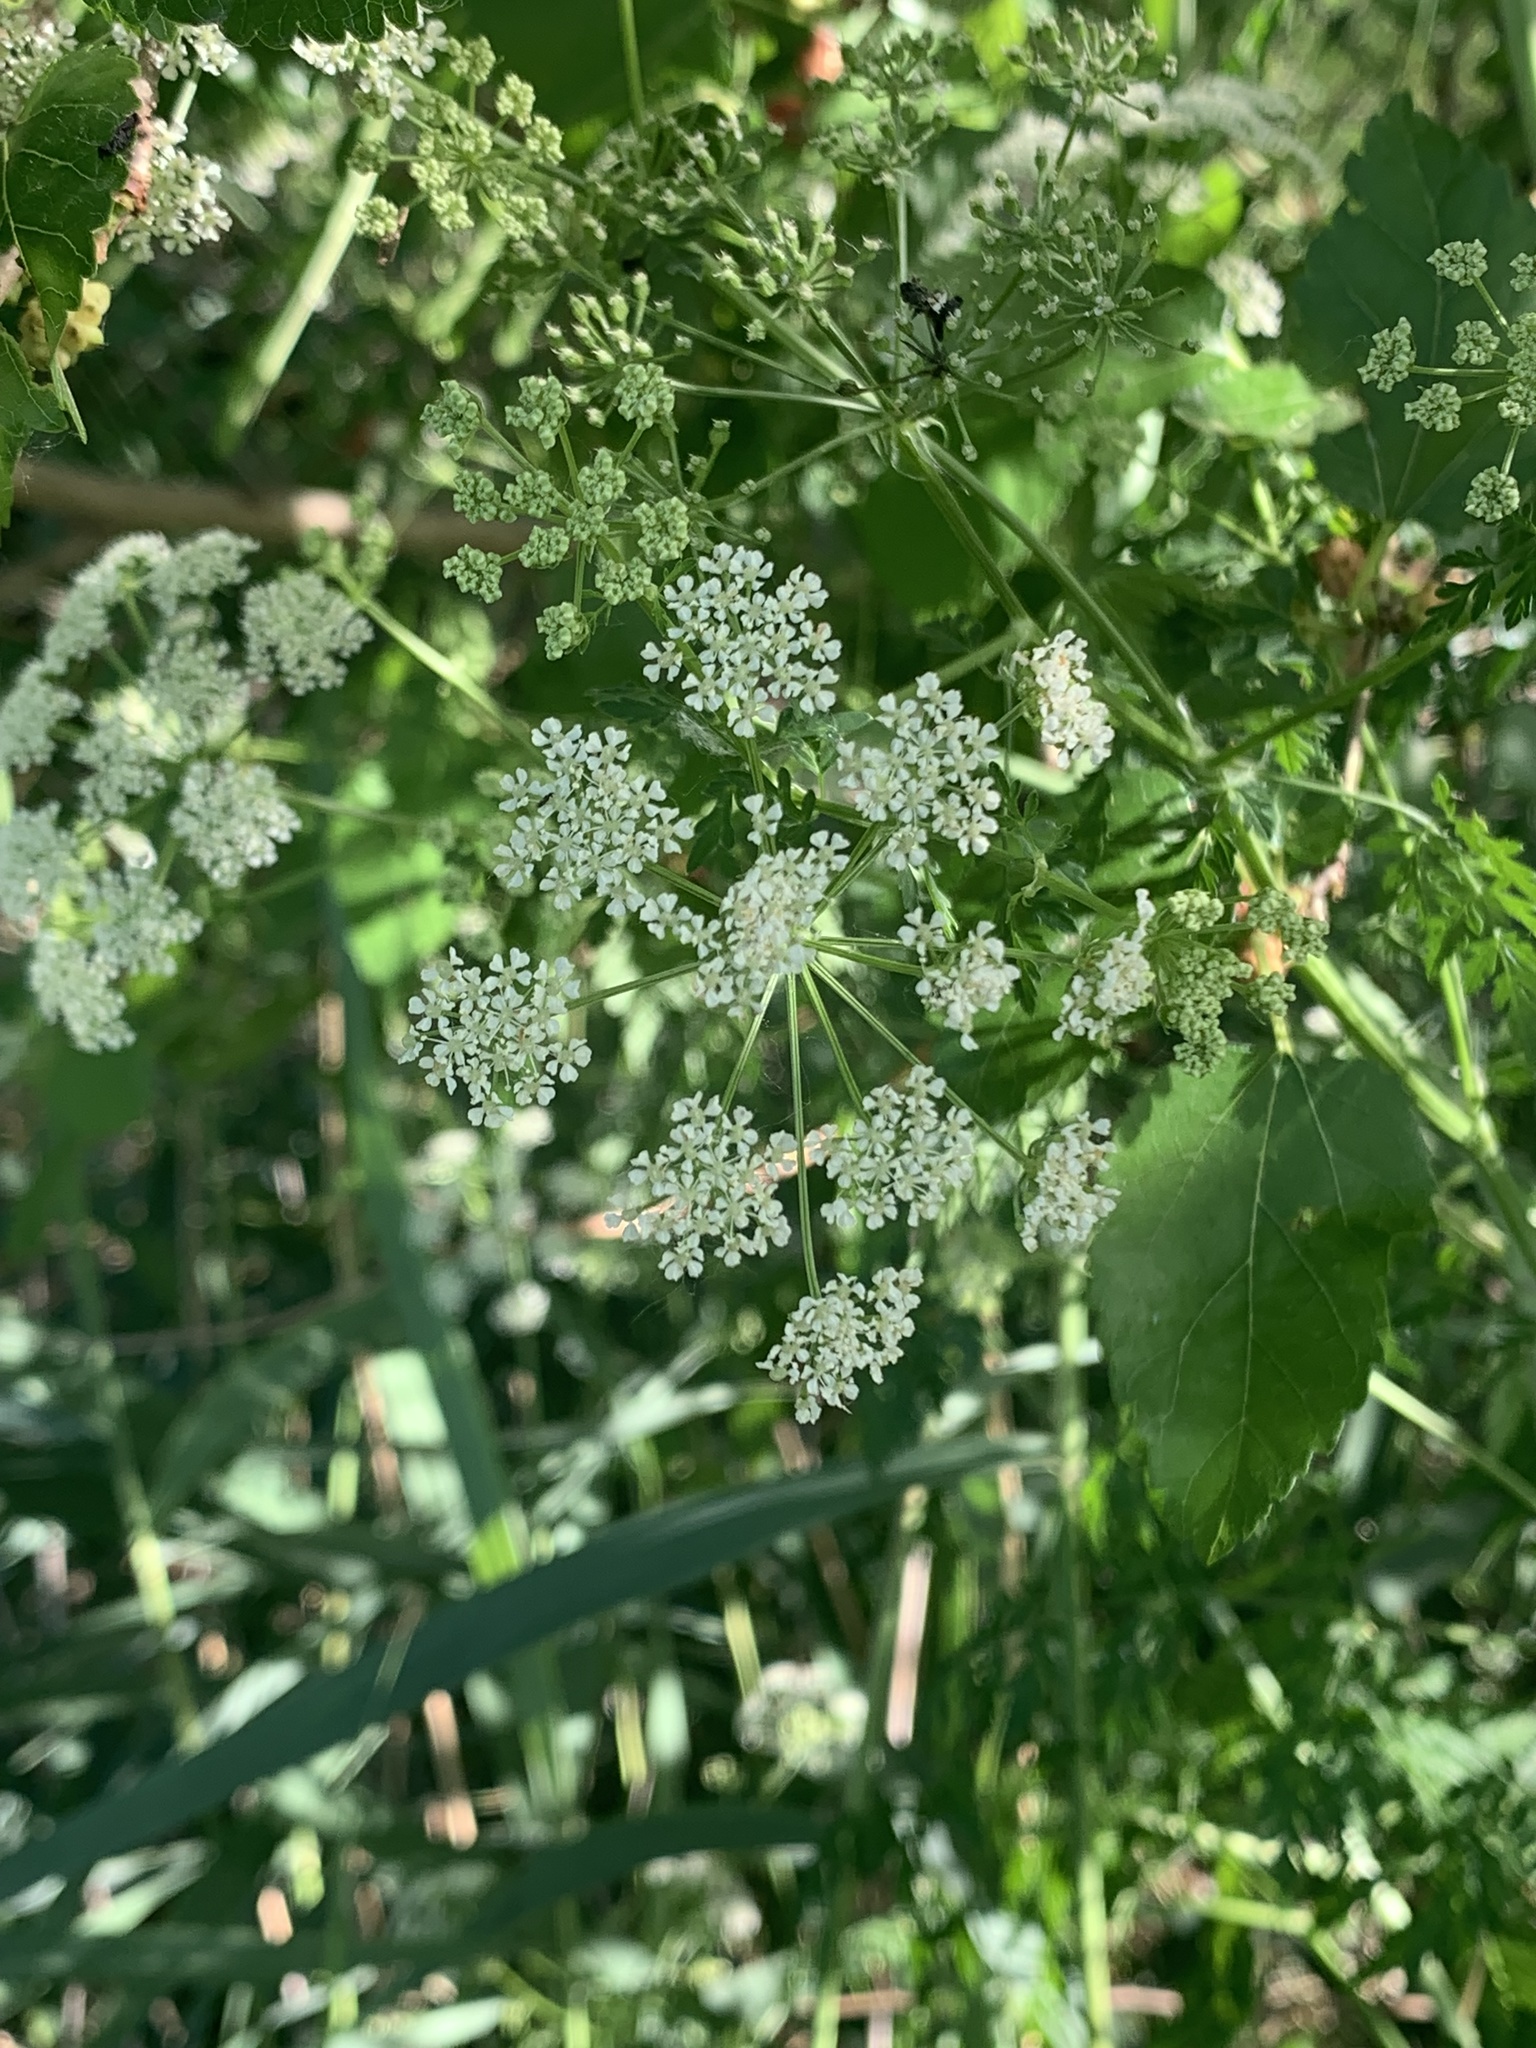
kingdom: Plantae
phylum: Tracheophyta
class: Magnoliopsida
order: Apiales
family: Apiaceae
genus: Conium
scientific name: Conium maculatum
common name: Hemlock
